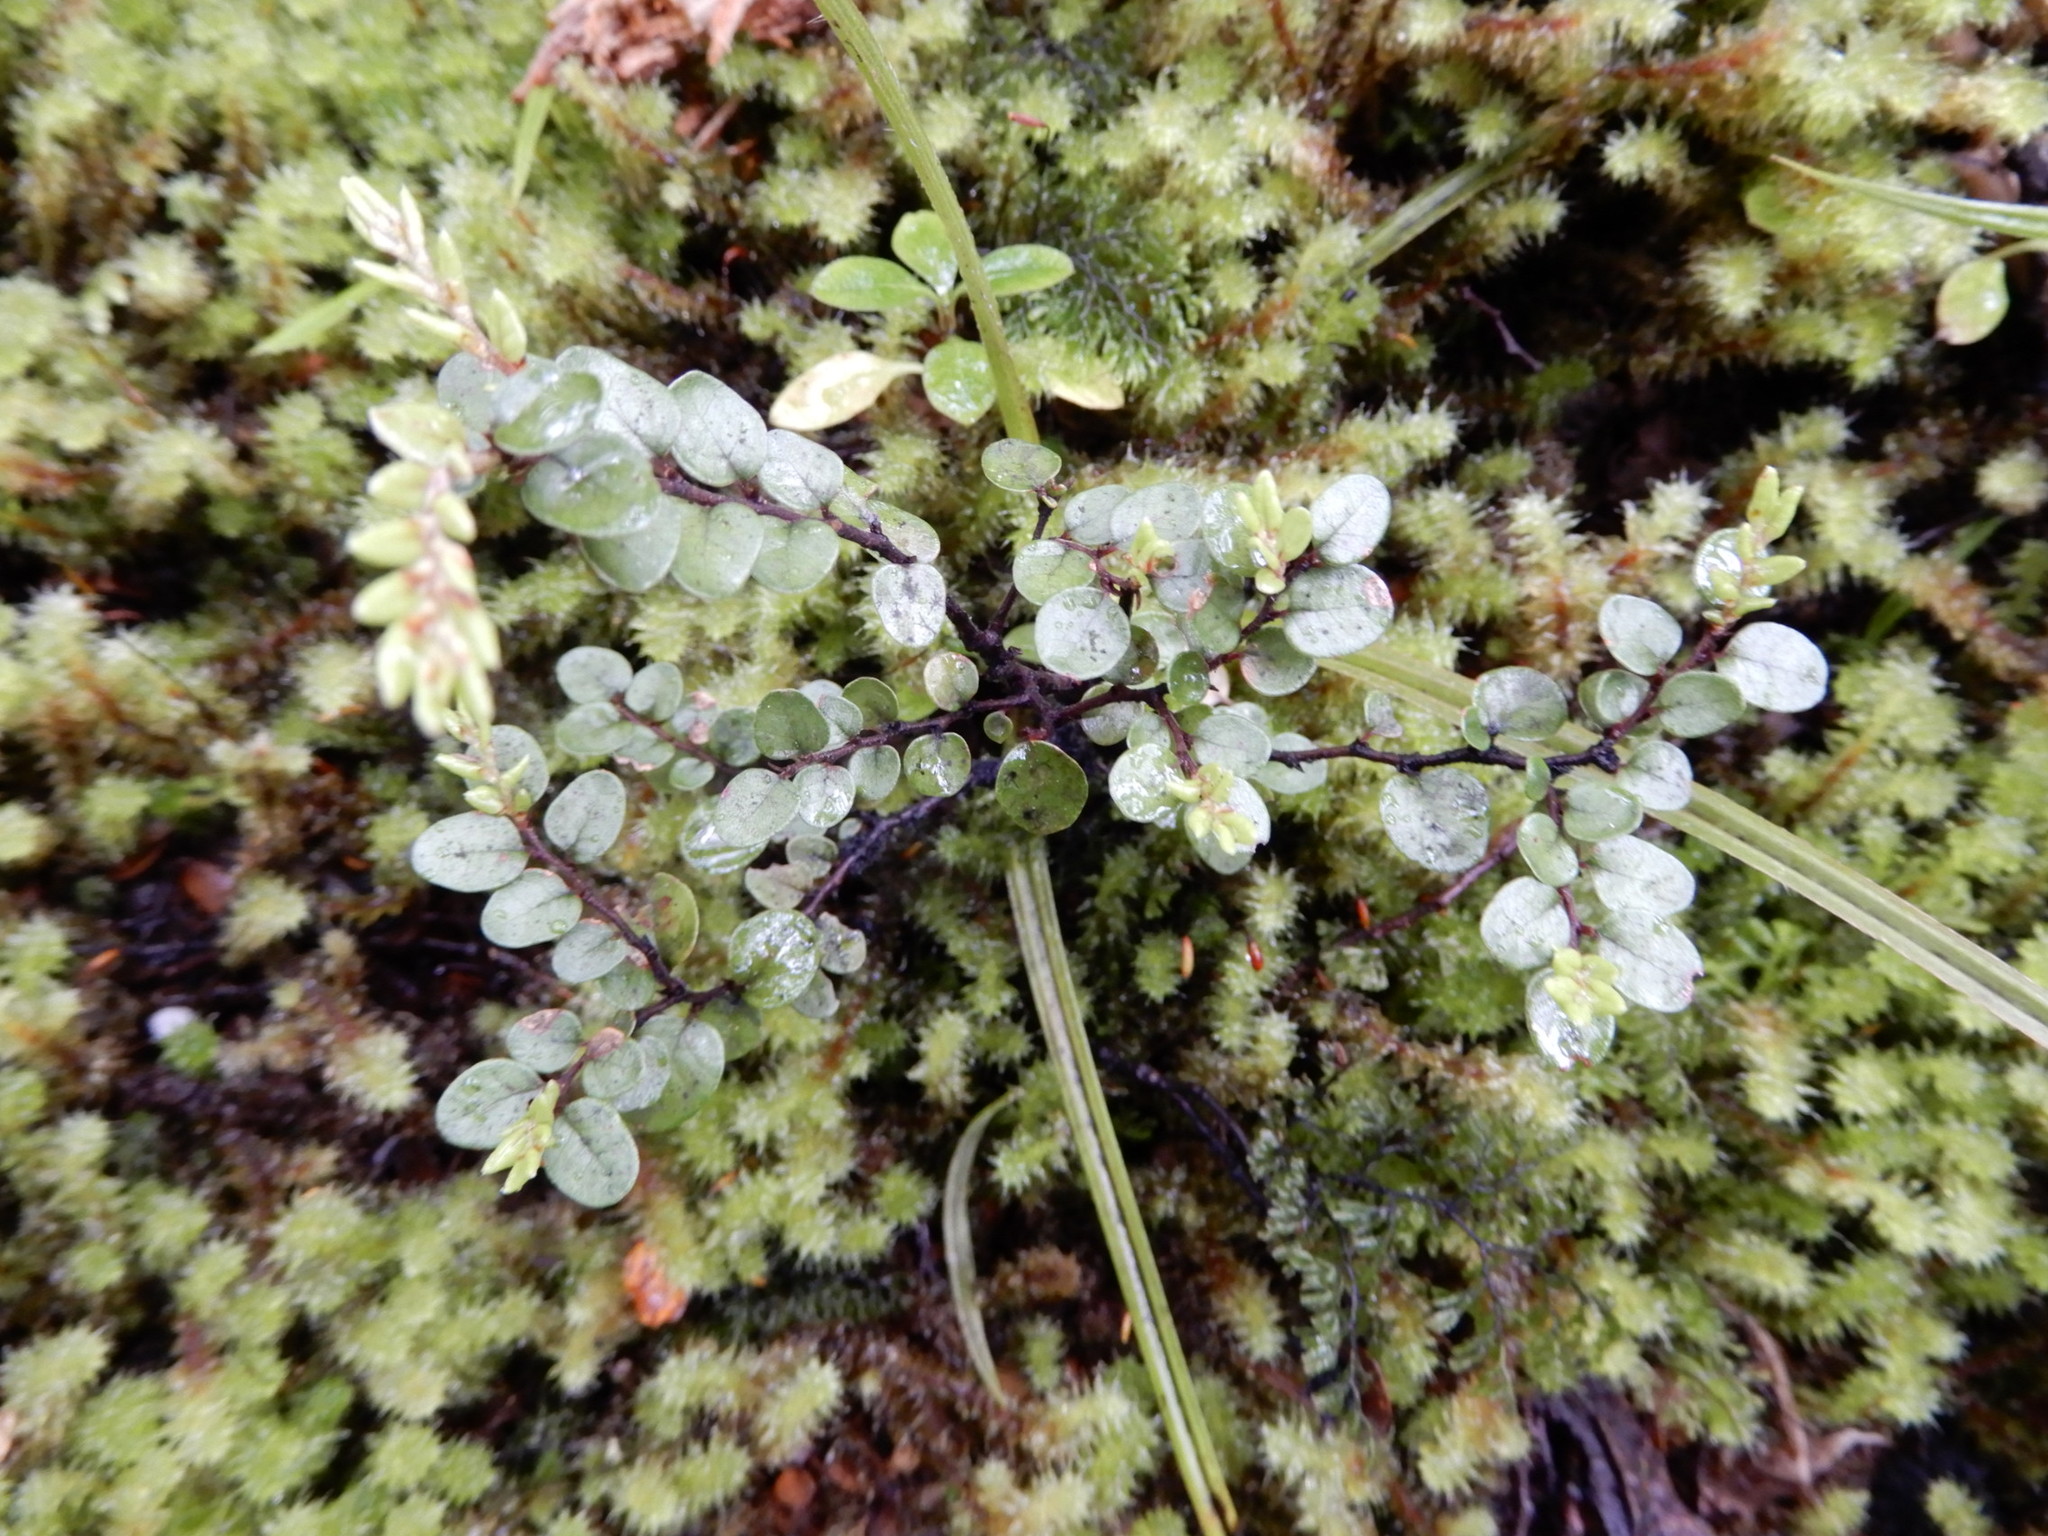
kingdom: Plantae
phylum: Tracheophyta
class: Magnoliopsida
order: Fagales
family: Nothofagaceae
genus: Nothofagus
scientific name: Nothofagus cliffortioides
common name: Mountain beech
